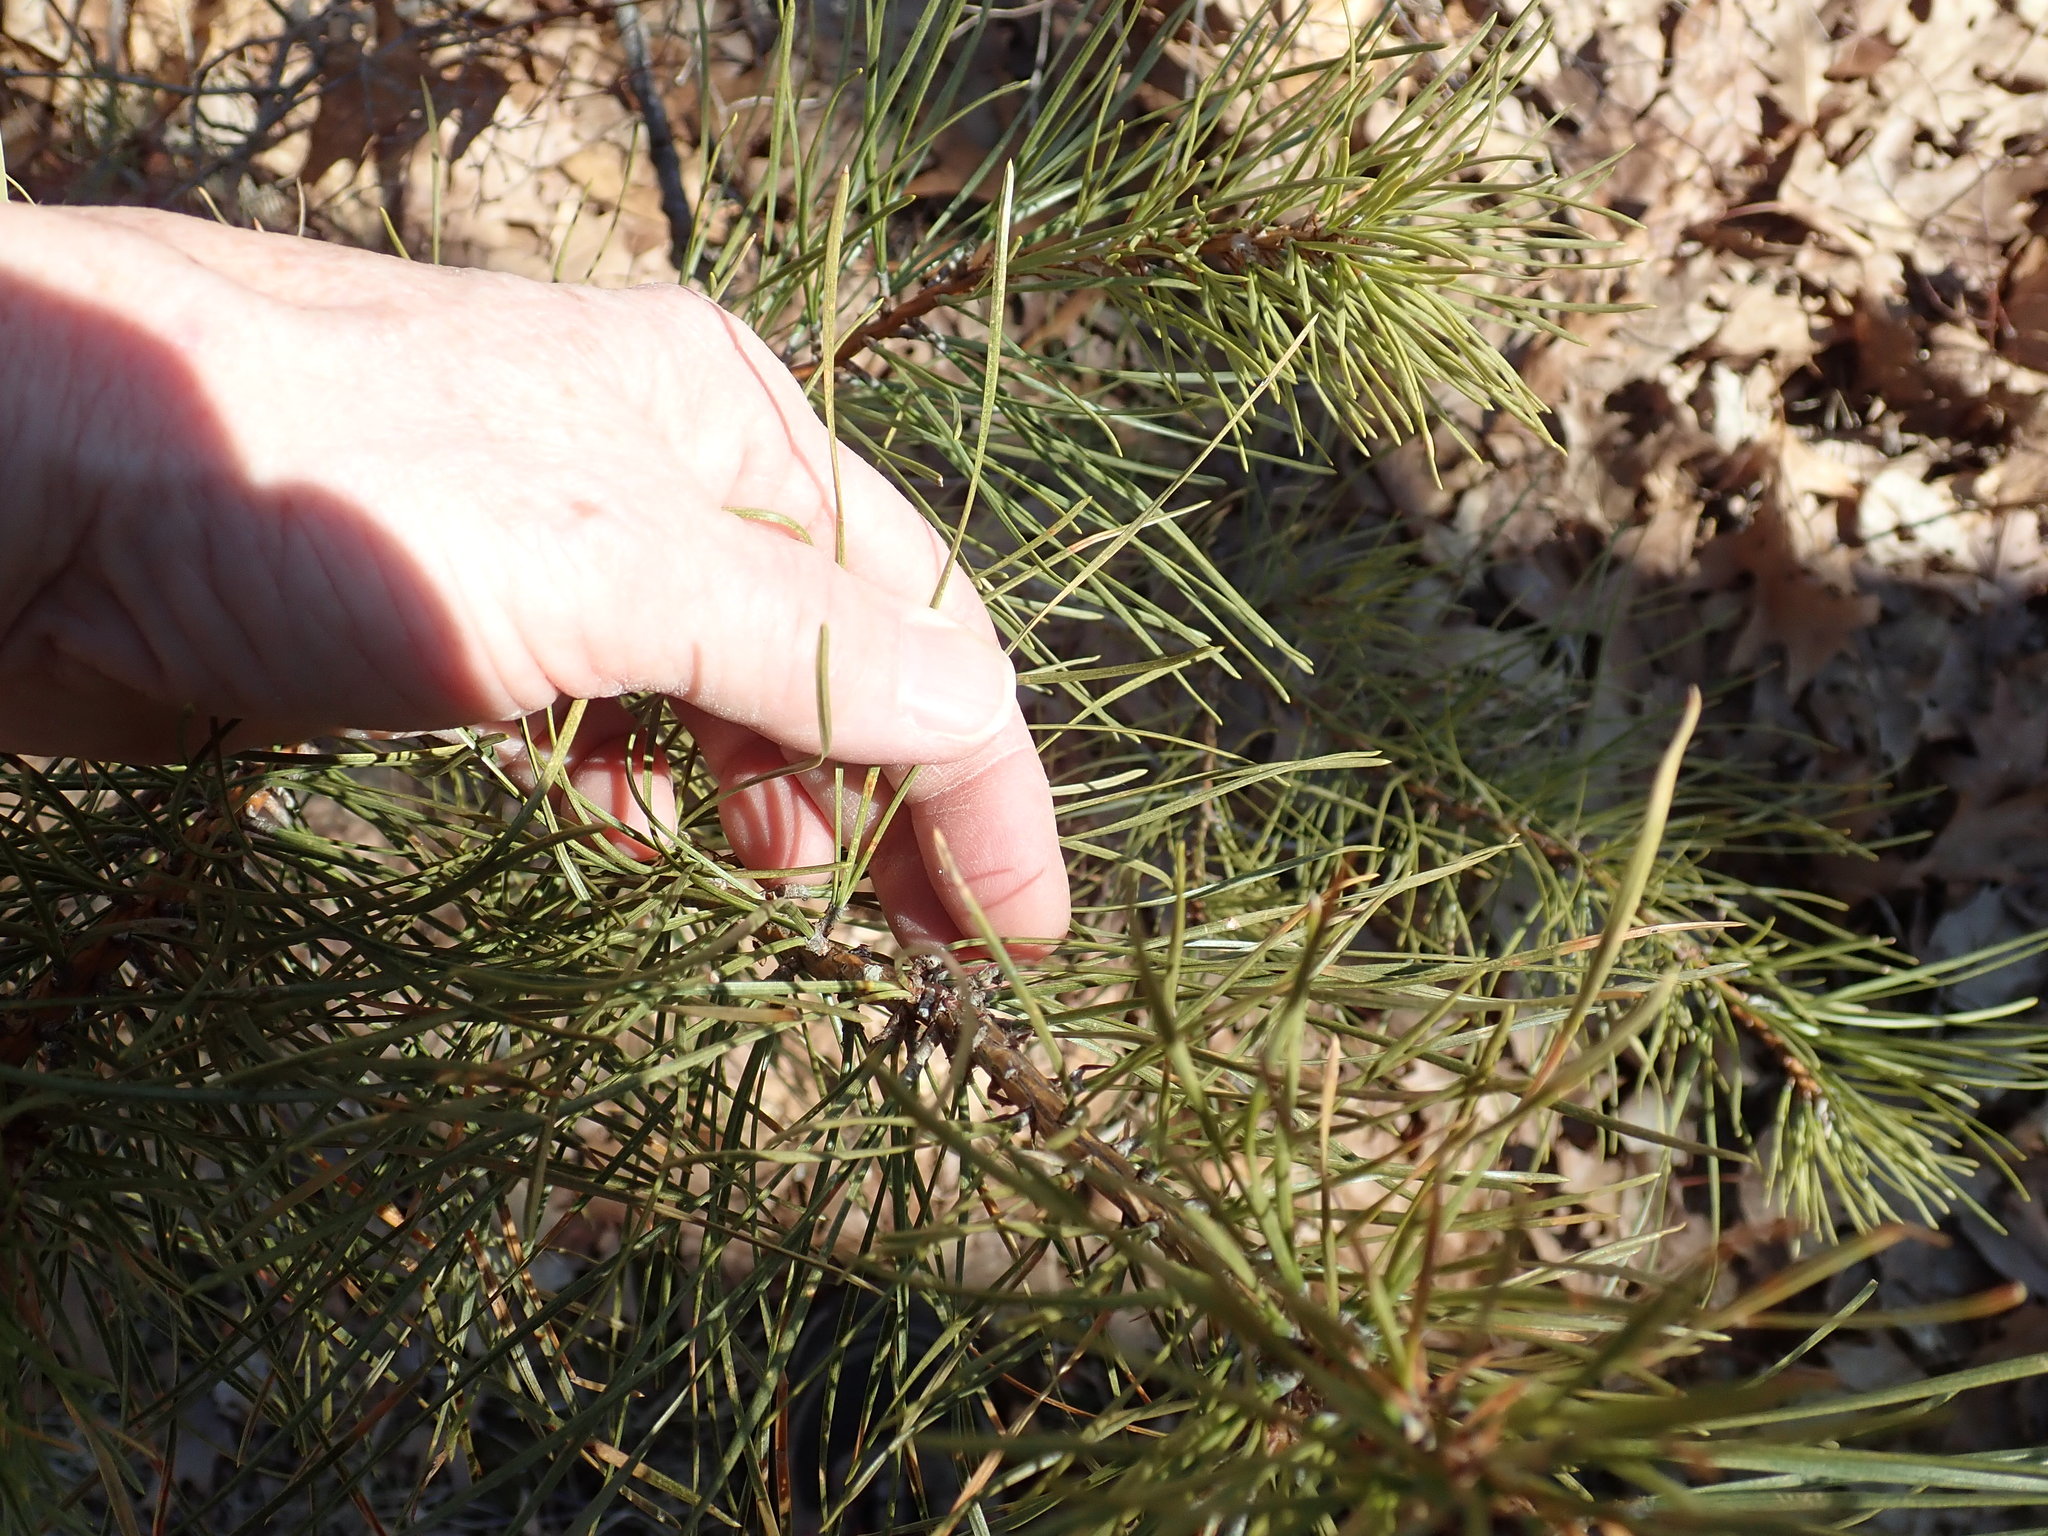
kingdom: Plantae
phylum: Tracheophyta
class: Pinopsida
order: Pinales
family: Pinaceae
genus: Pinus
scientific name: Pinus rigida
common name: Pitch pine
